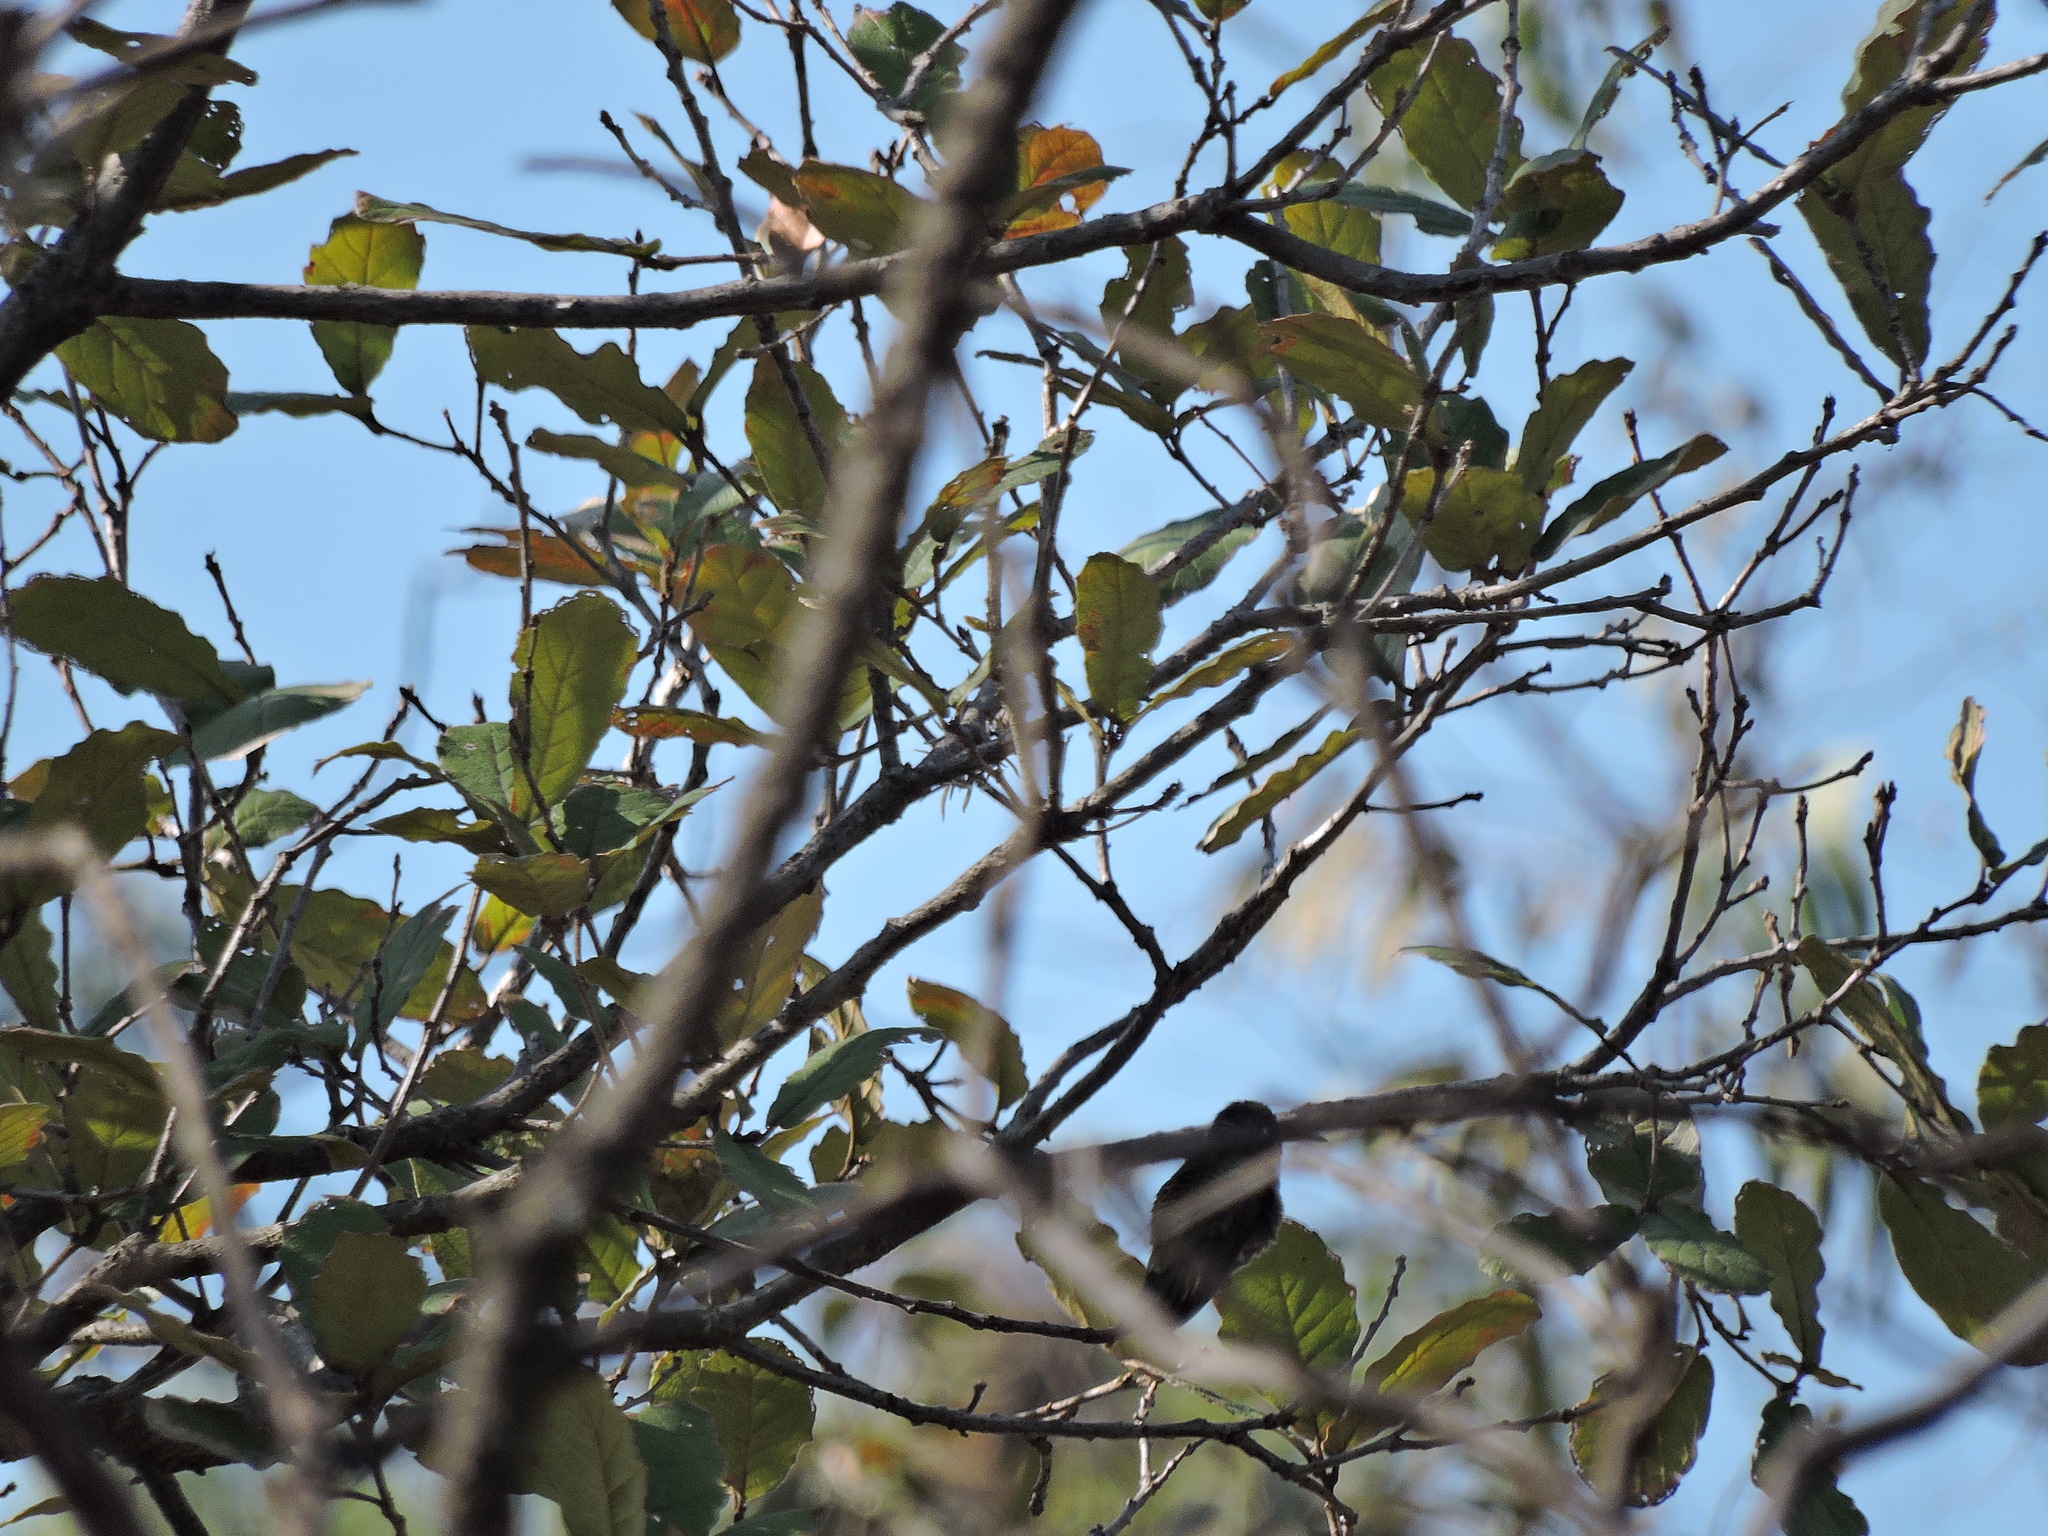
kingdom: Animalia
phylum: Chordata
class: Aves
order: Apodiformes
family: Trochilidae
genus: Eugenes
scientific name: Eugenes fulgens
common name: Magnificent hummingbird
